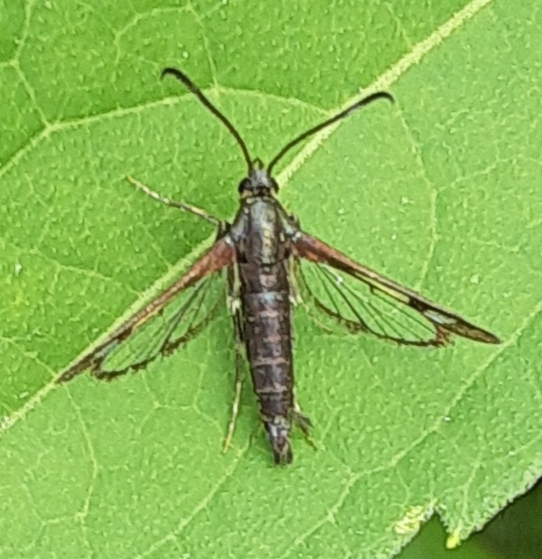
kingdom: Animalia
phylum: Arthropoda
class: Insecta
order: Lepidoptera
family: Sesiidae
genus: Carmenta
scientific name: Carmenta ithacae
